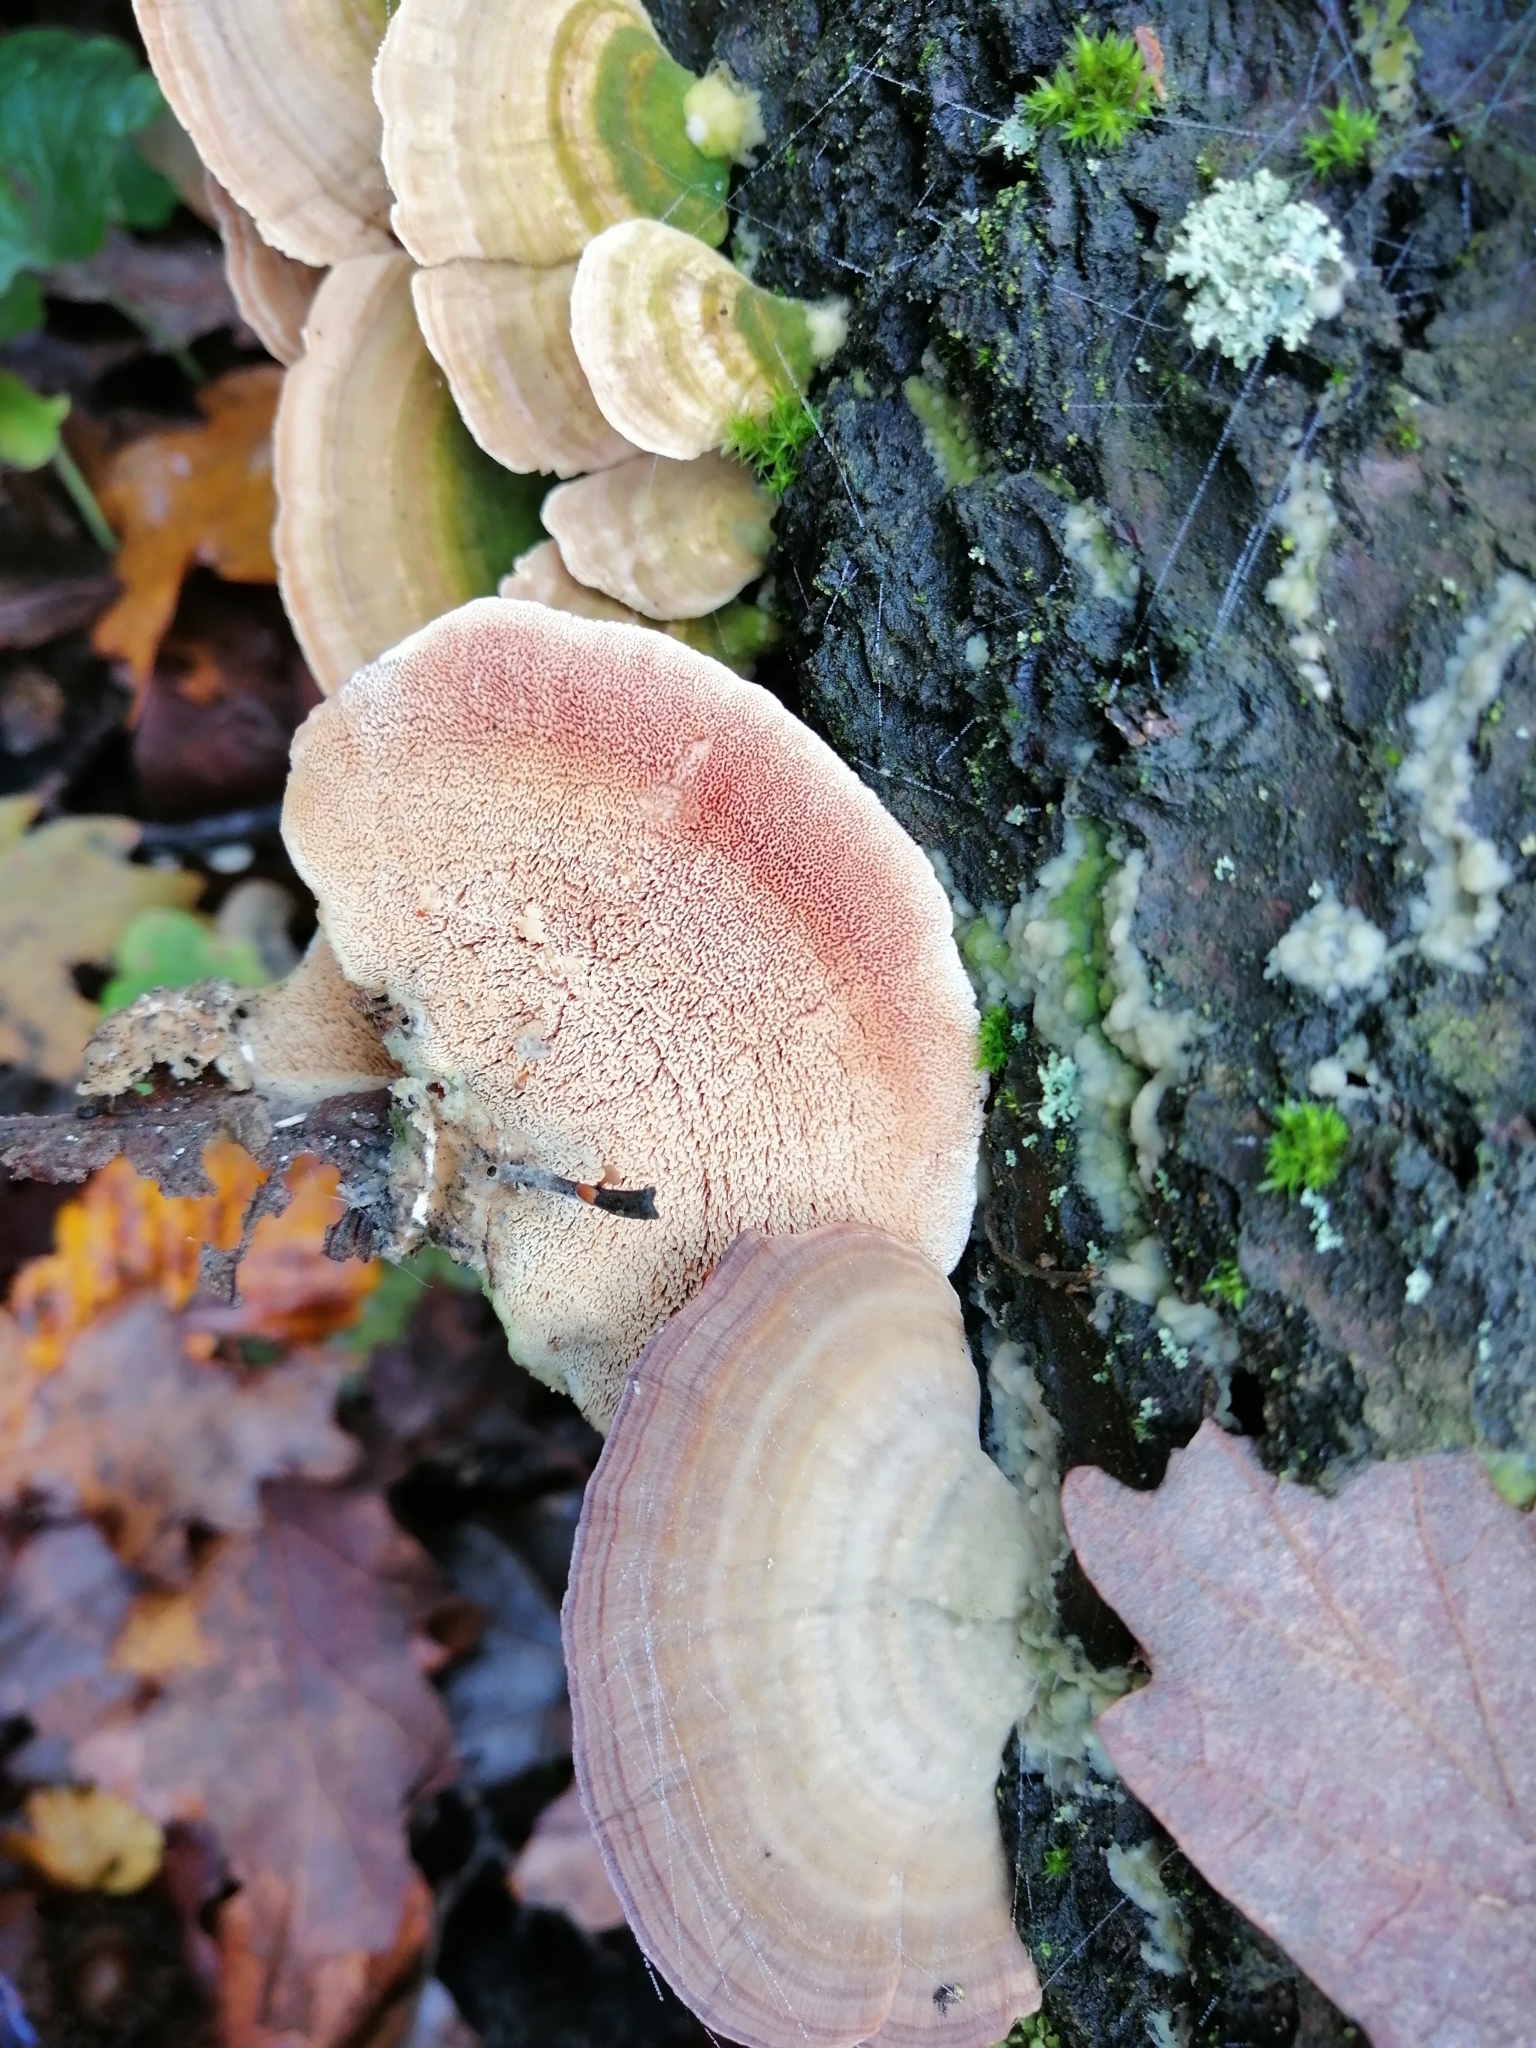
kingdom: Fungi
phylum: Basidiomycota
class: Agaricomycetes
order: Hymenochaetales
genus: Trichaptum
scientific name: Trichaptum biforme
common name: Violet-toothed polypore
